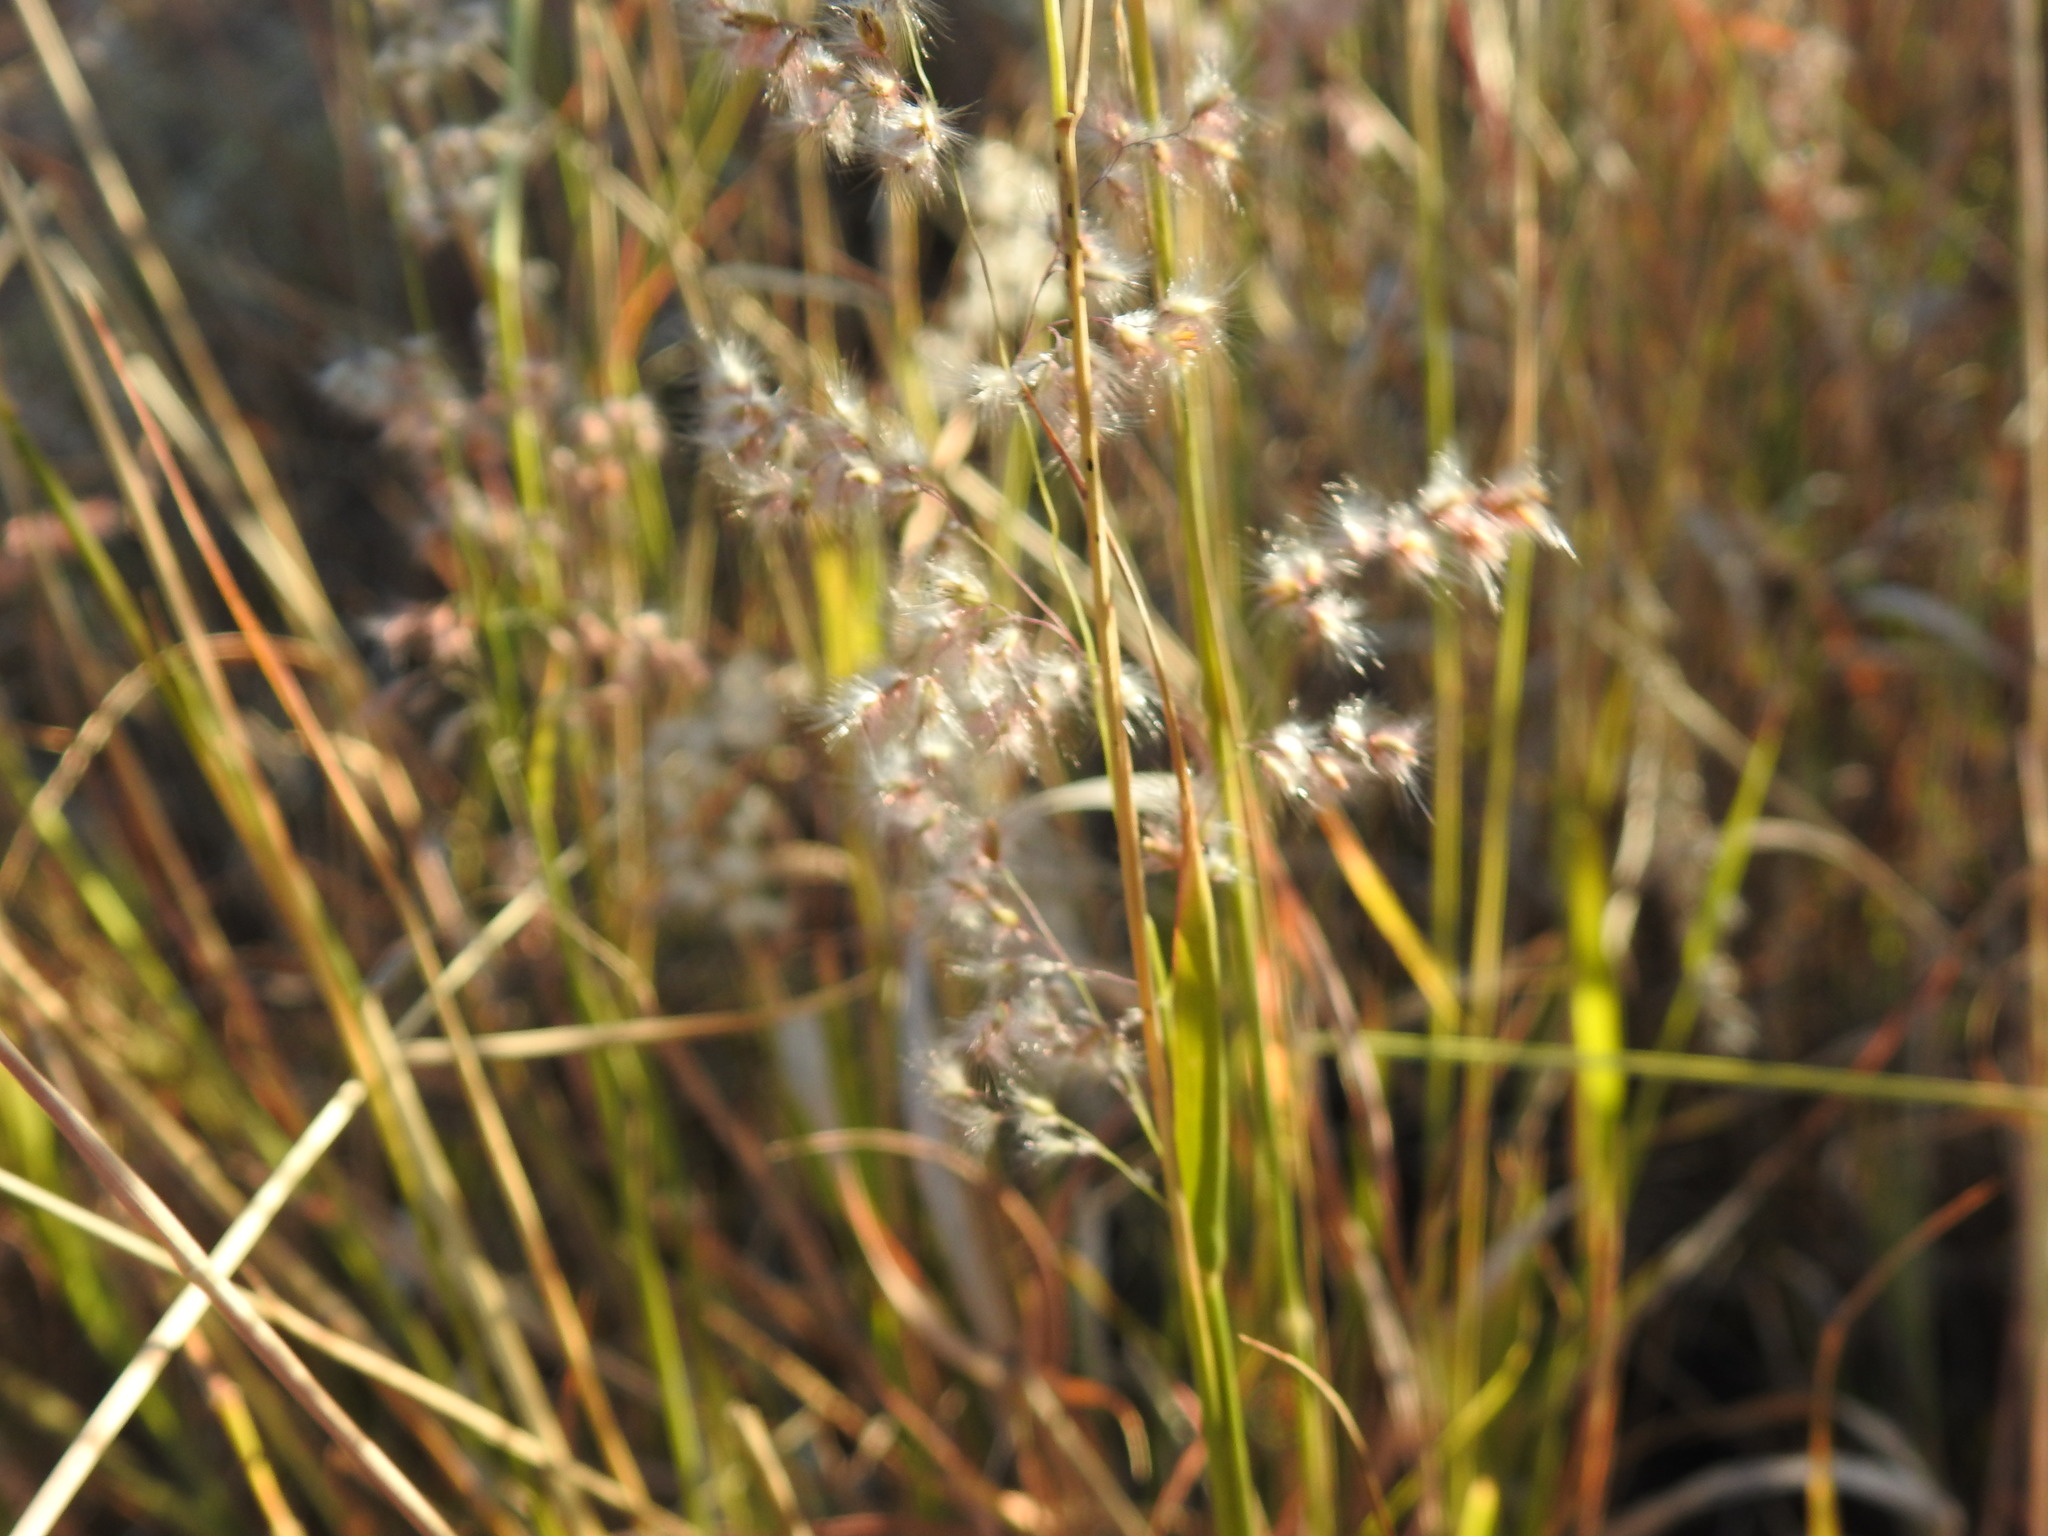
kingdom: Plantae
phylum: Tracheophyta
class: Liliopsida
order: Poales
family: Poaceae
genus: Melinis
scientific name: Melinis repens
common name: Rose natal grass
